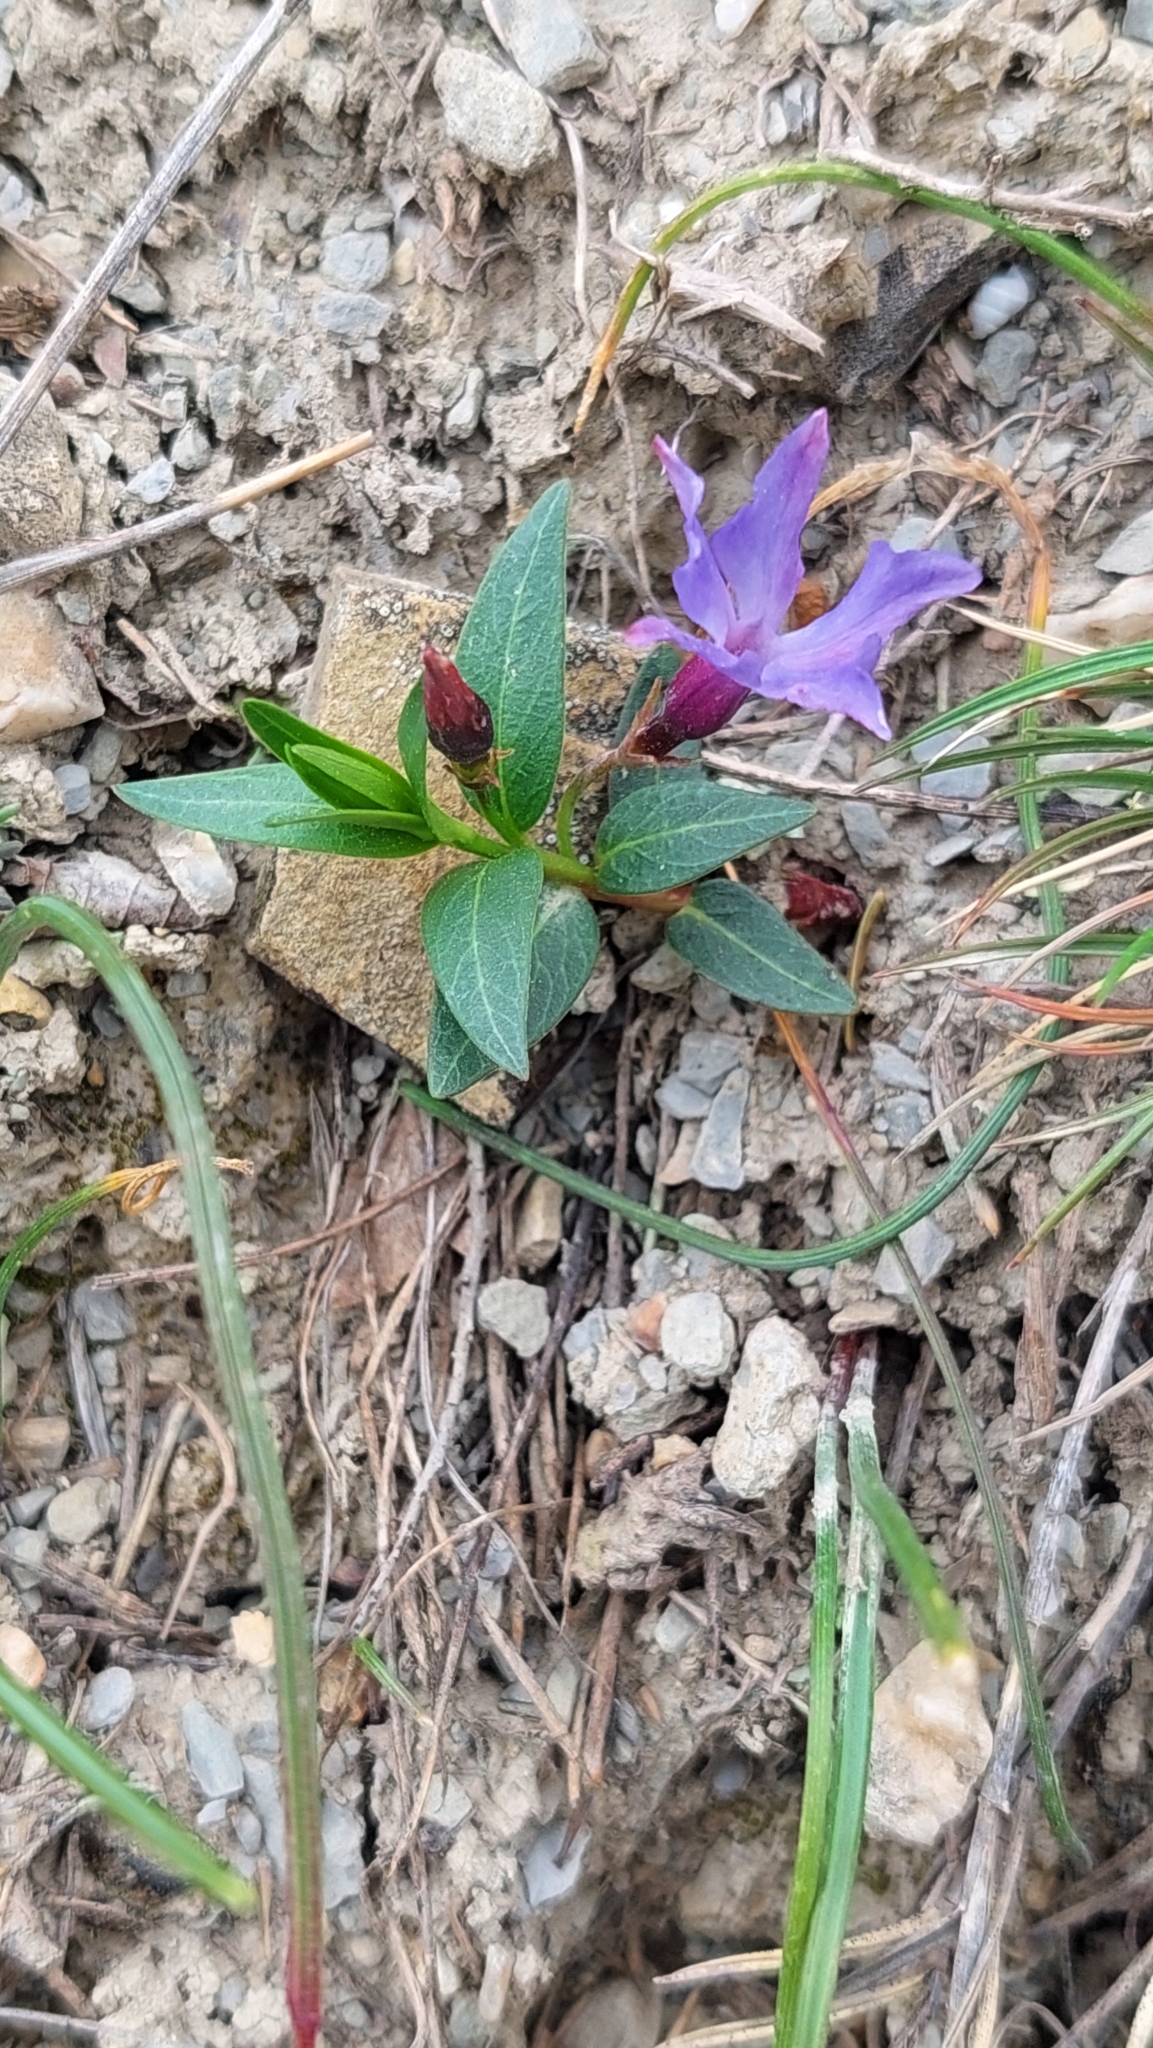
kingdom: Plantae
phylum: Tracheophyta
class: Magnoliopsida
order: Gentianales
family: Apocynaceae
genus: Vinca
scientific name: Vinca herbacea
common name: Herbaceous periwinkle
